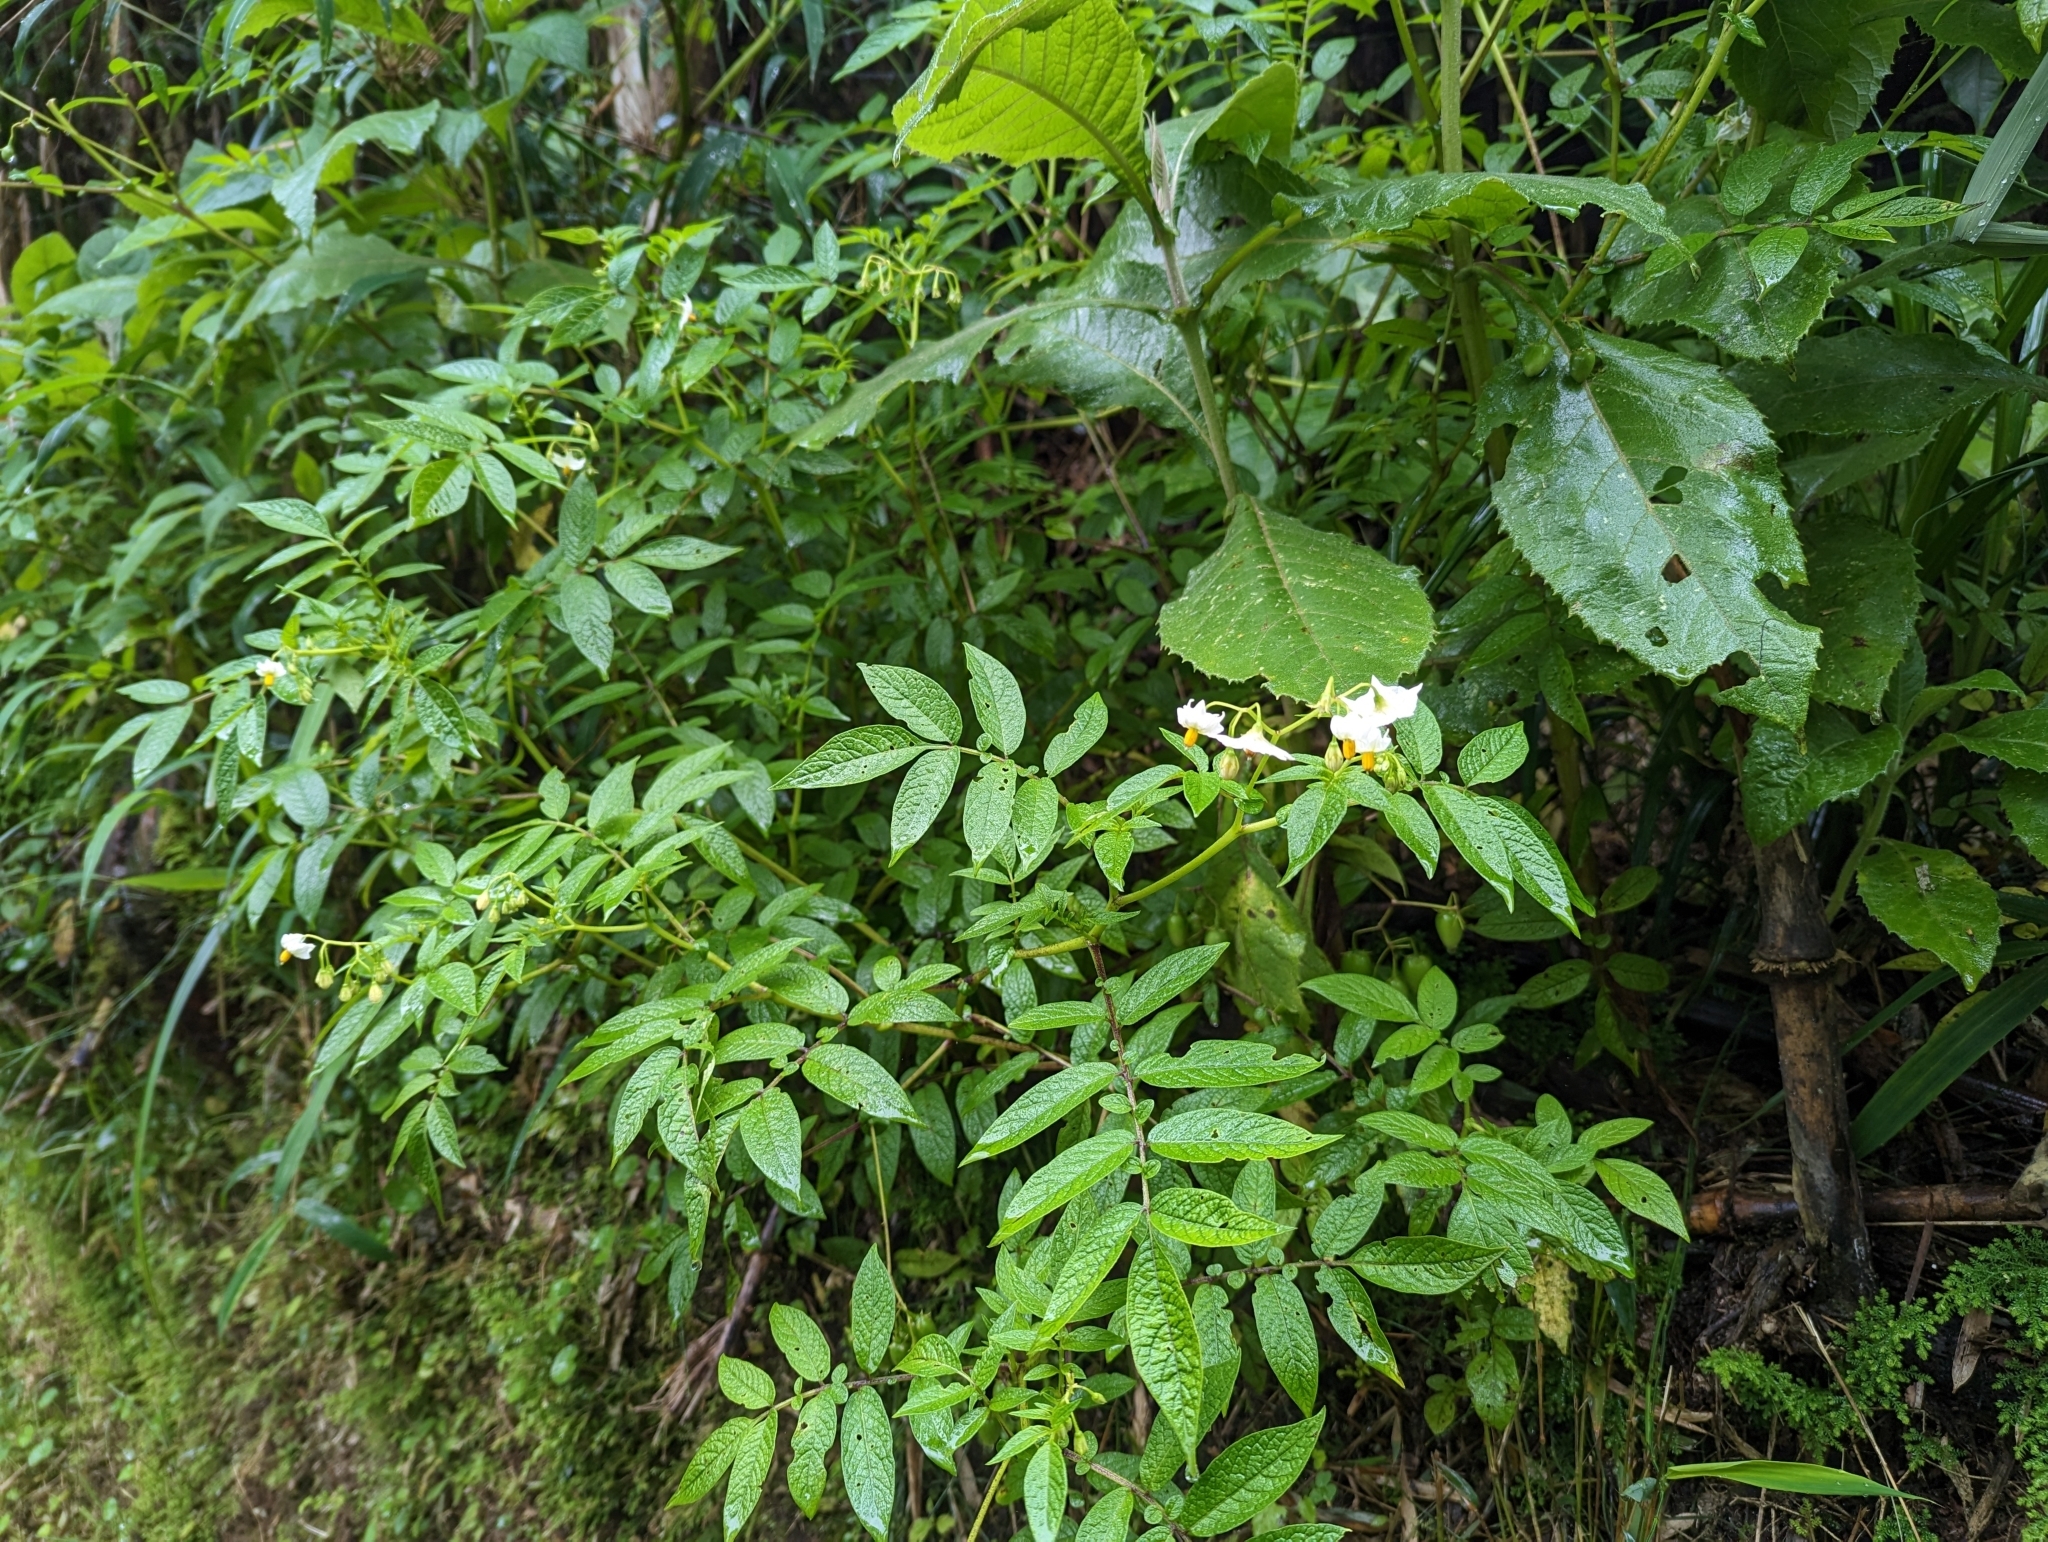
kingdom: Plantae
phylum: Tracheophyta
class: Magnoliopsida
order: Solanales
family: Solanaceae
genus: Solanum
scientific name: Solanum tuberosum
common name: Potato
